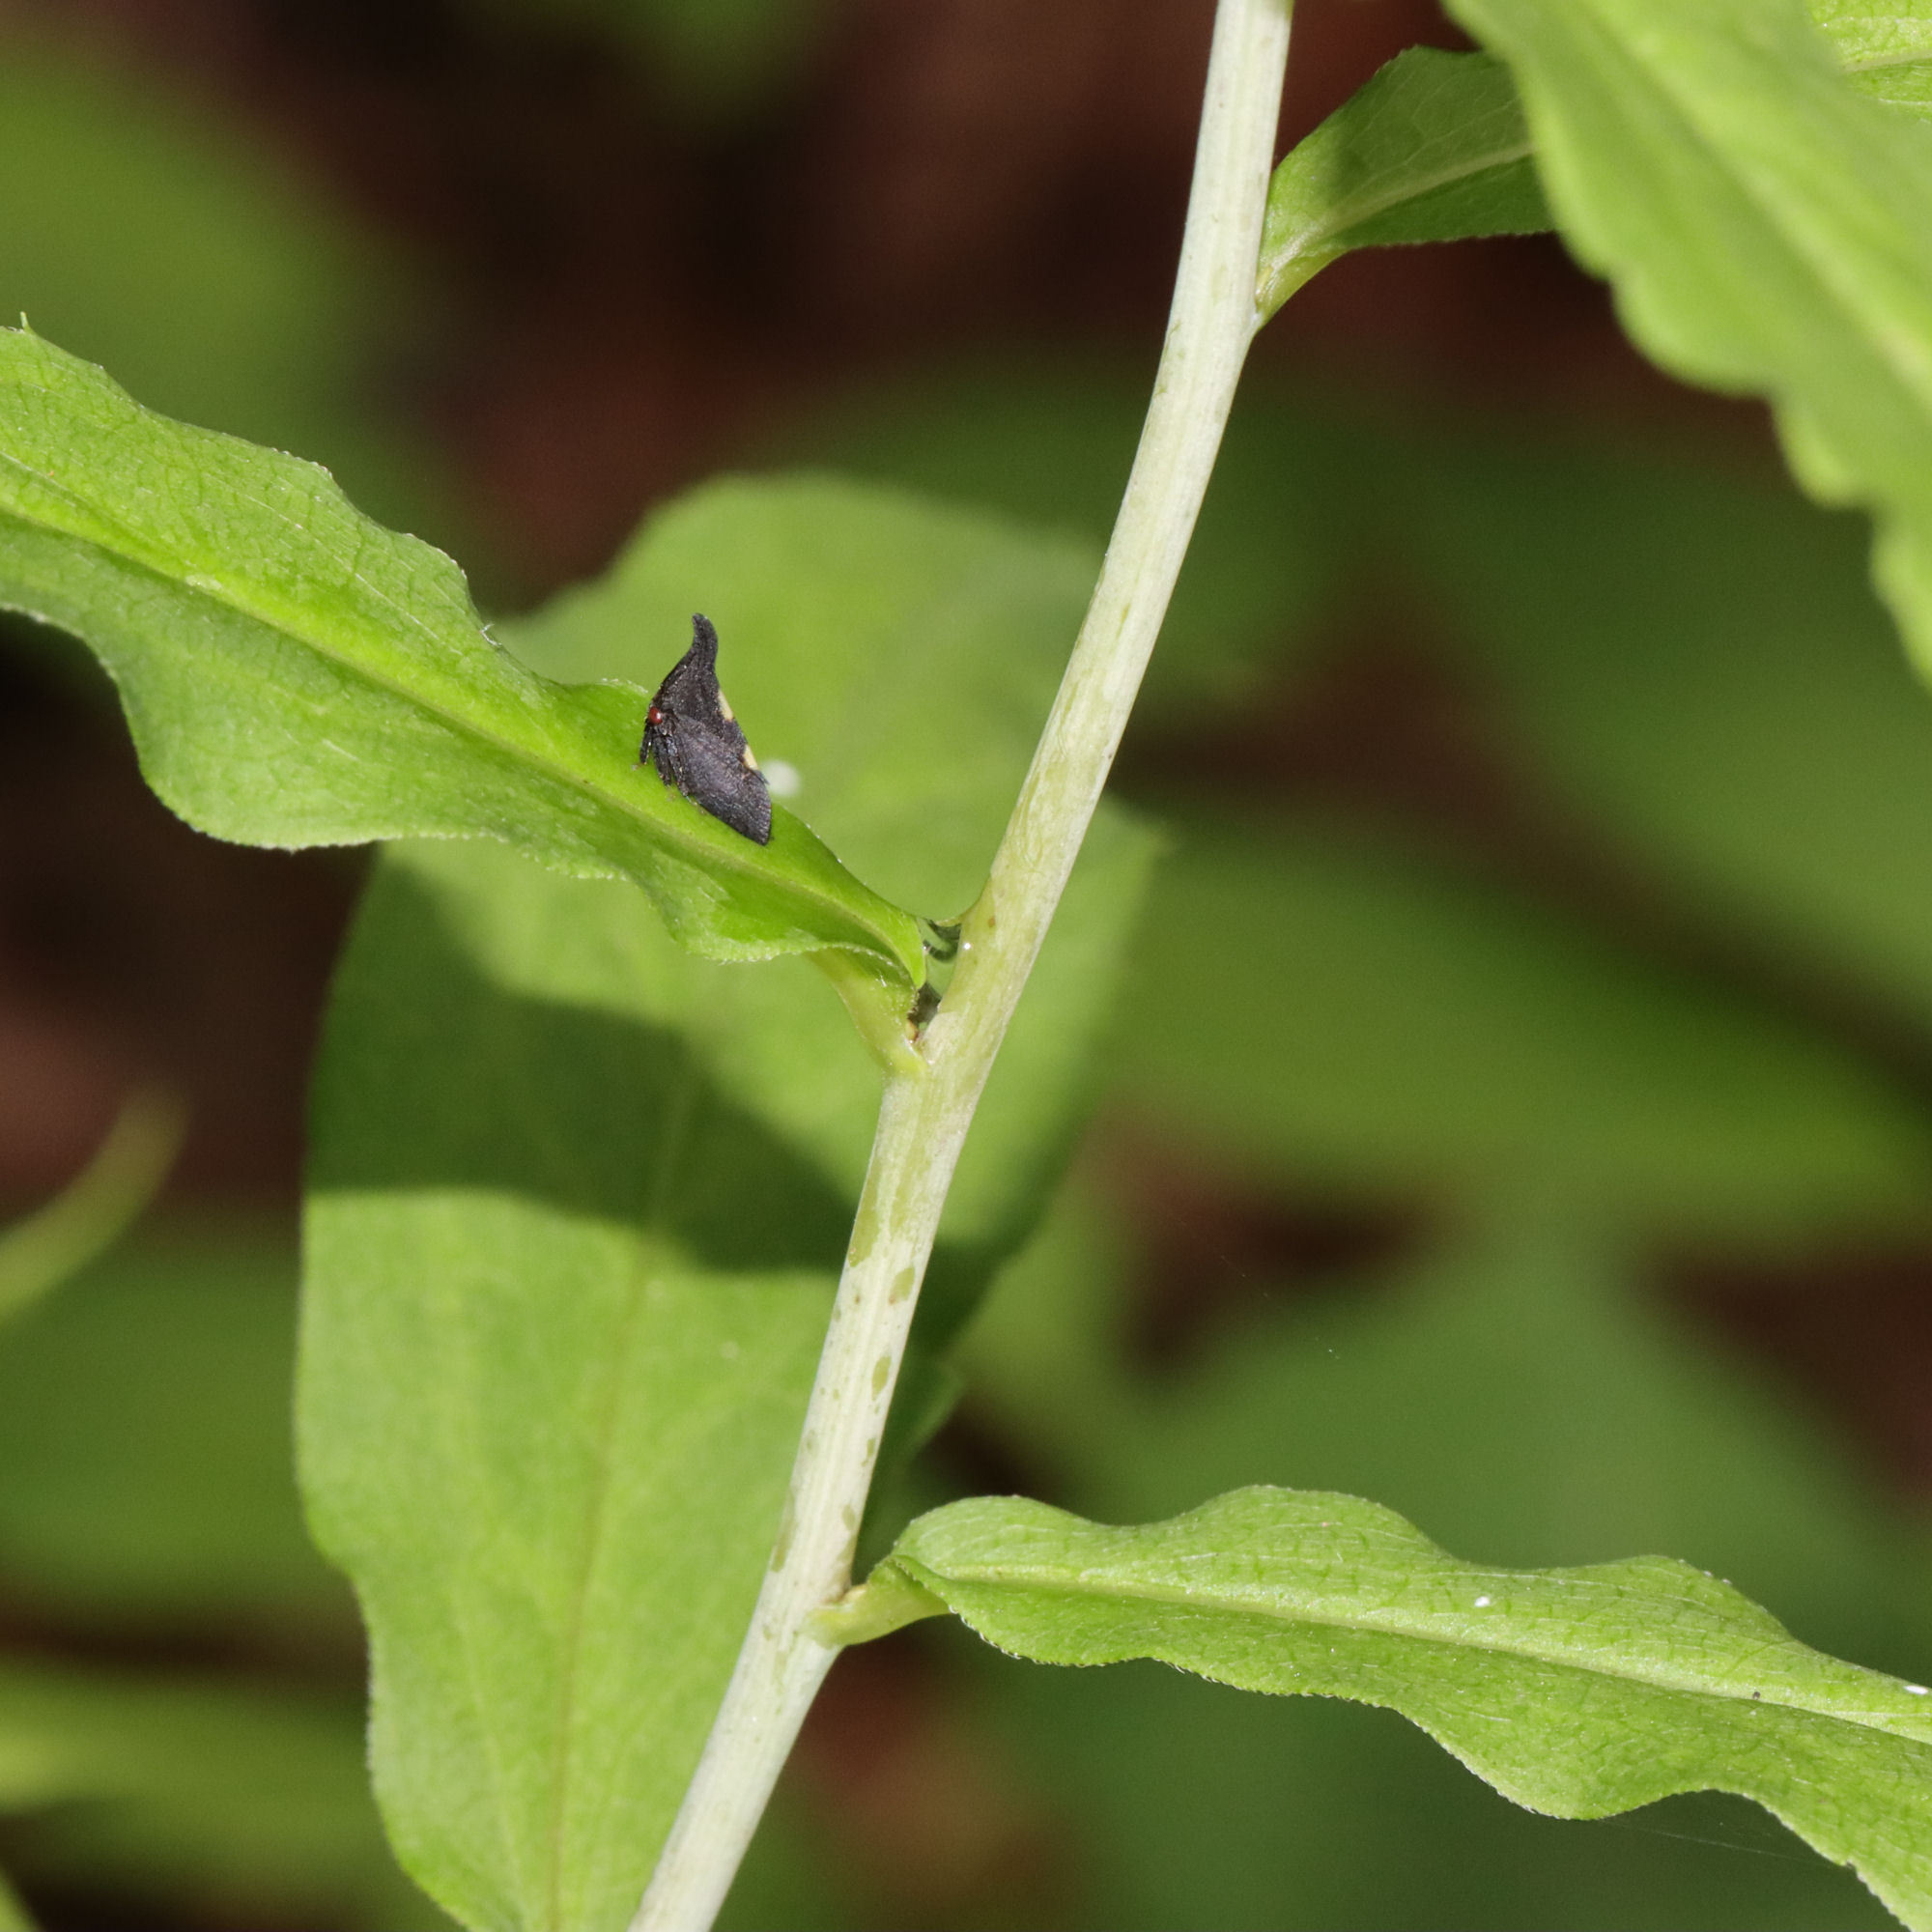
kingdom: Animalia
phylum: Arthropoda
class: Insecta
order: Hemiptera
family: Membracidae
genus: Enchenopa
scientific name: Enchenopa
